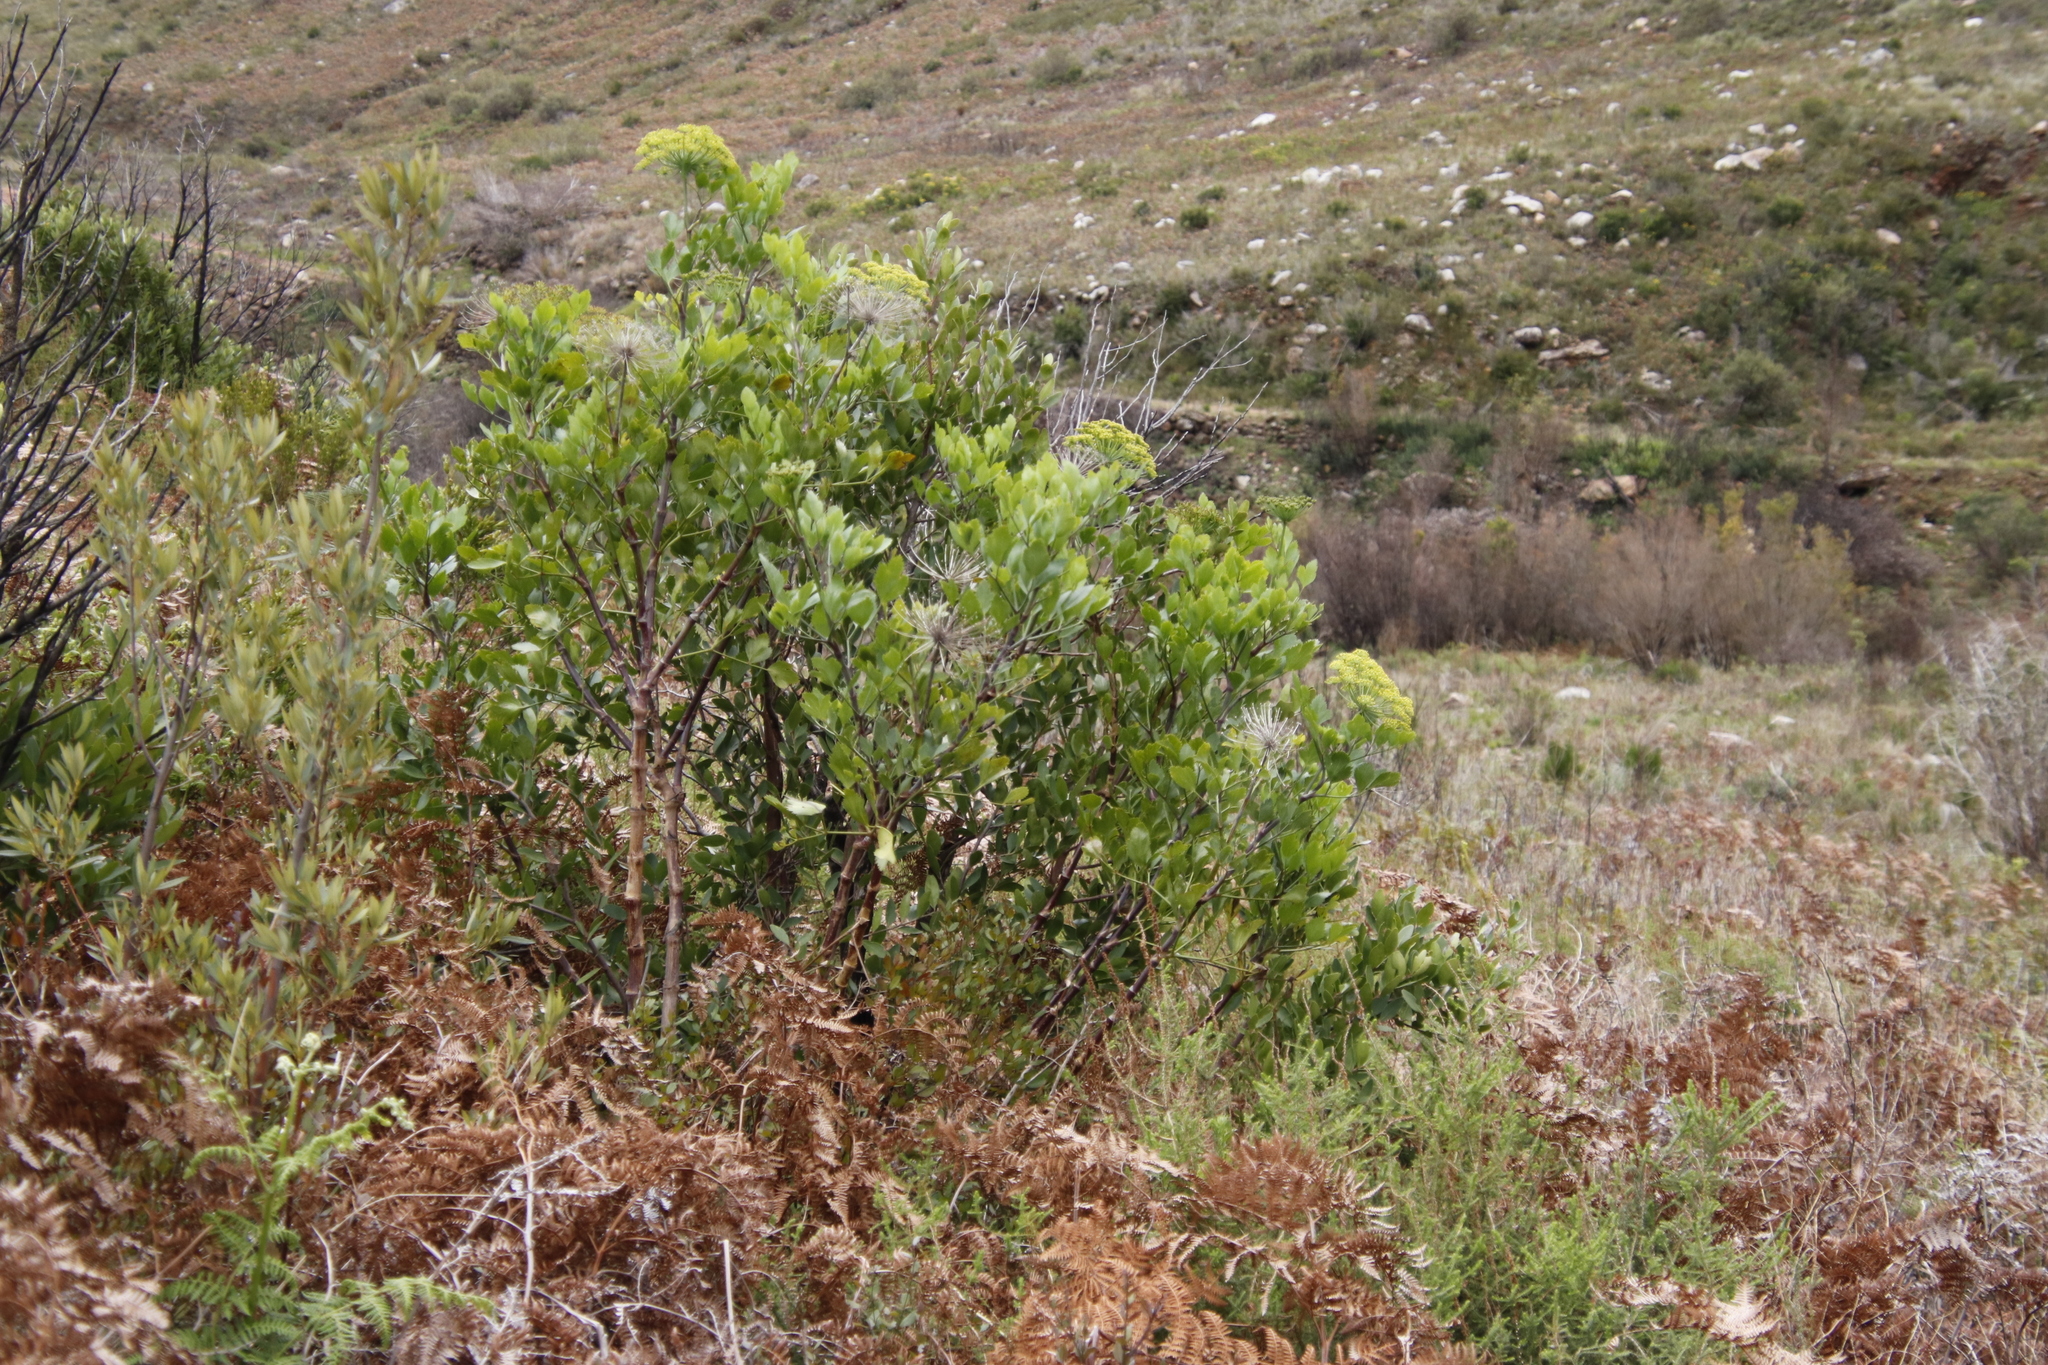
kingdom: Plantae
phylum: Tracheophyta
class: Magnoliopsida
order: Apiales
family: Apiaceae
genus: Notobubon
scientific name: Notobubon galbanum
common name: Blisterbush
